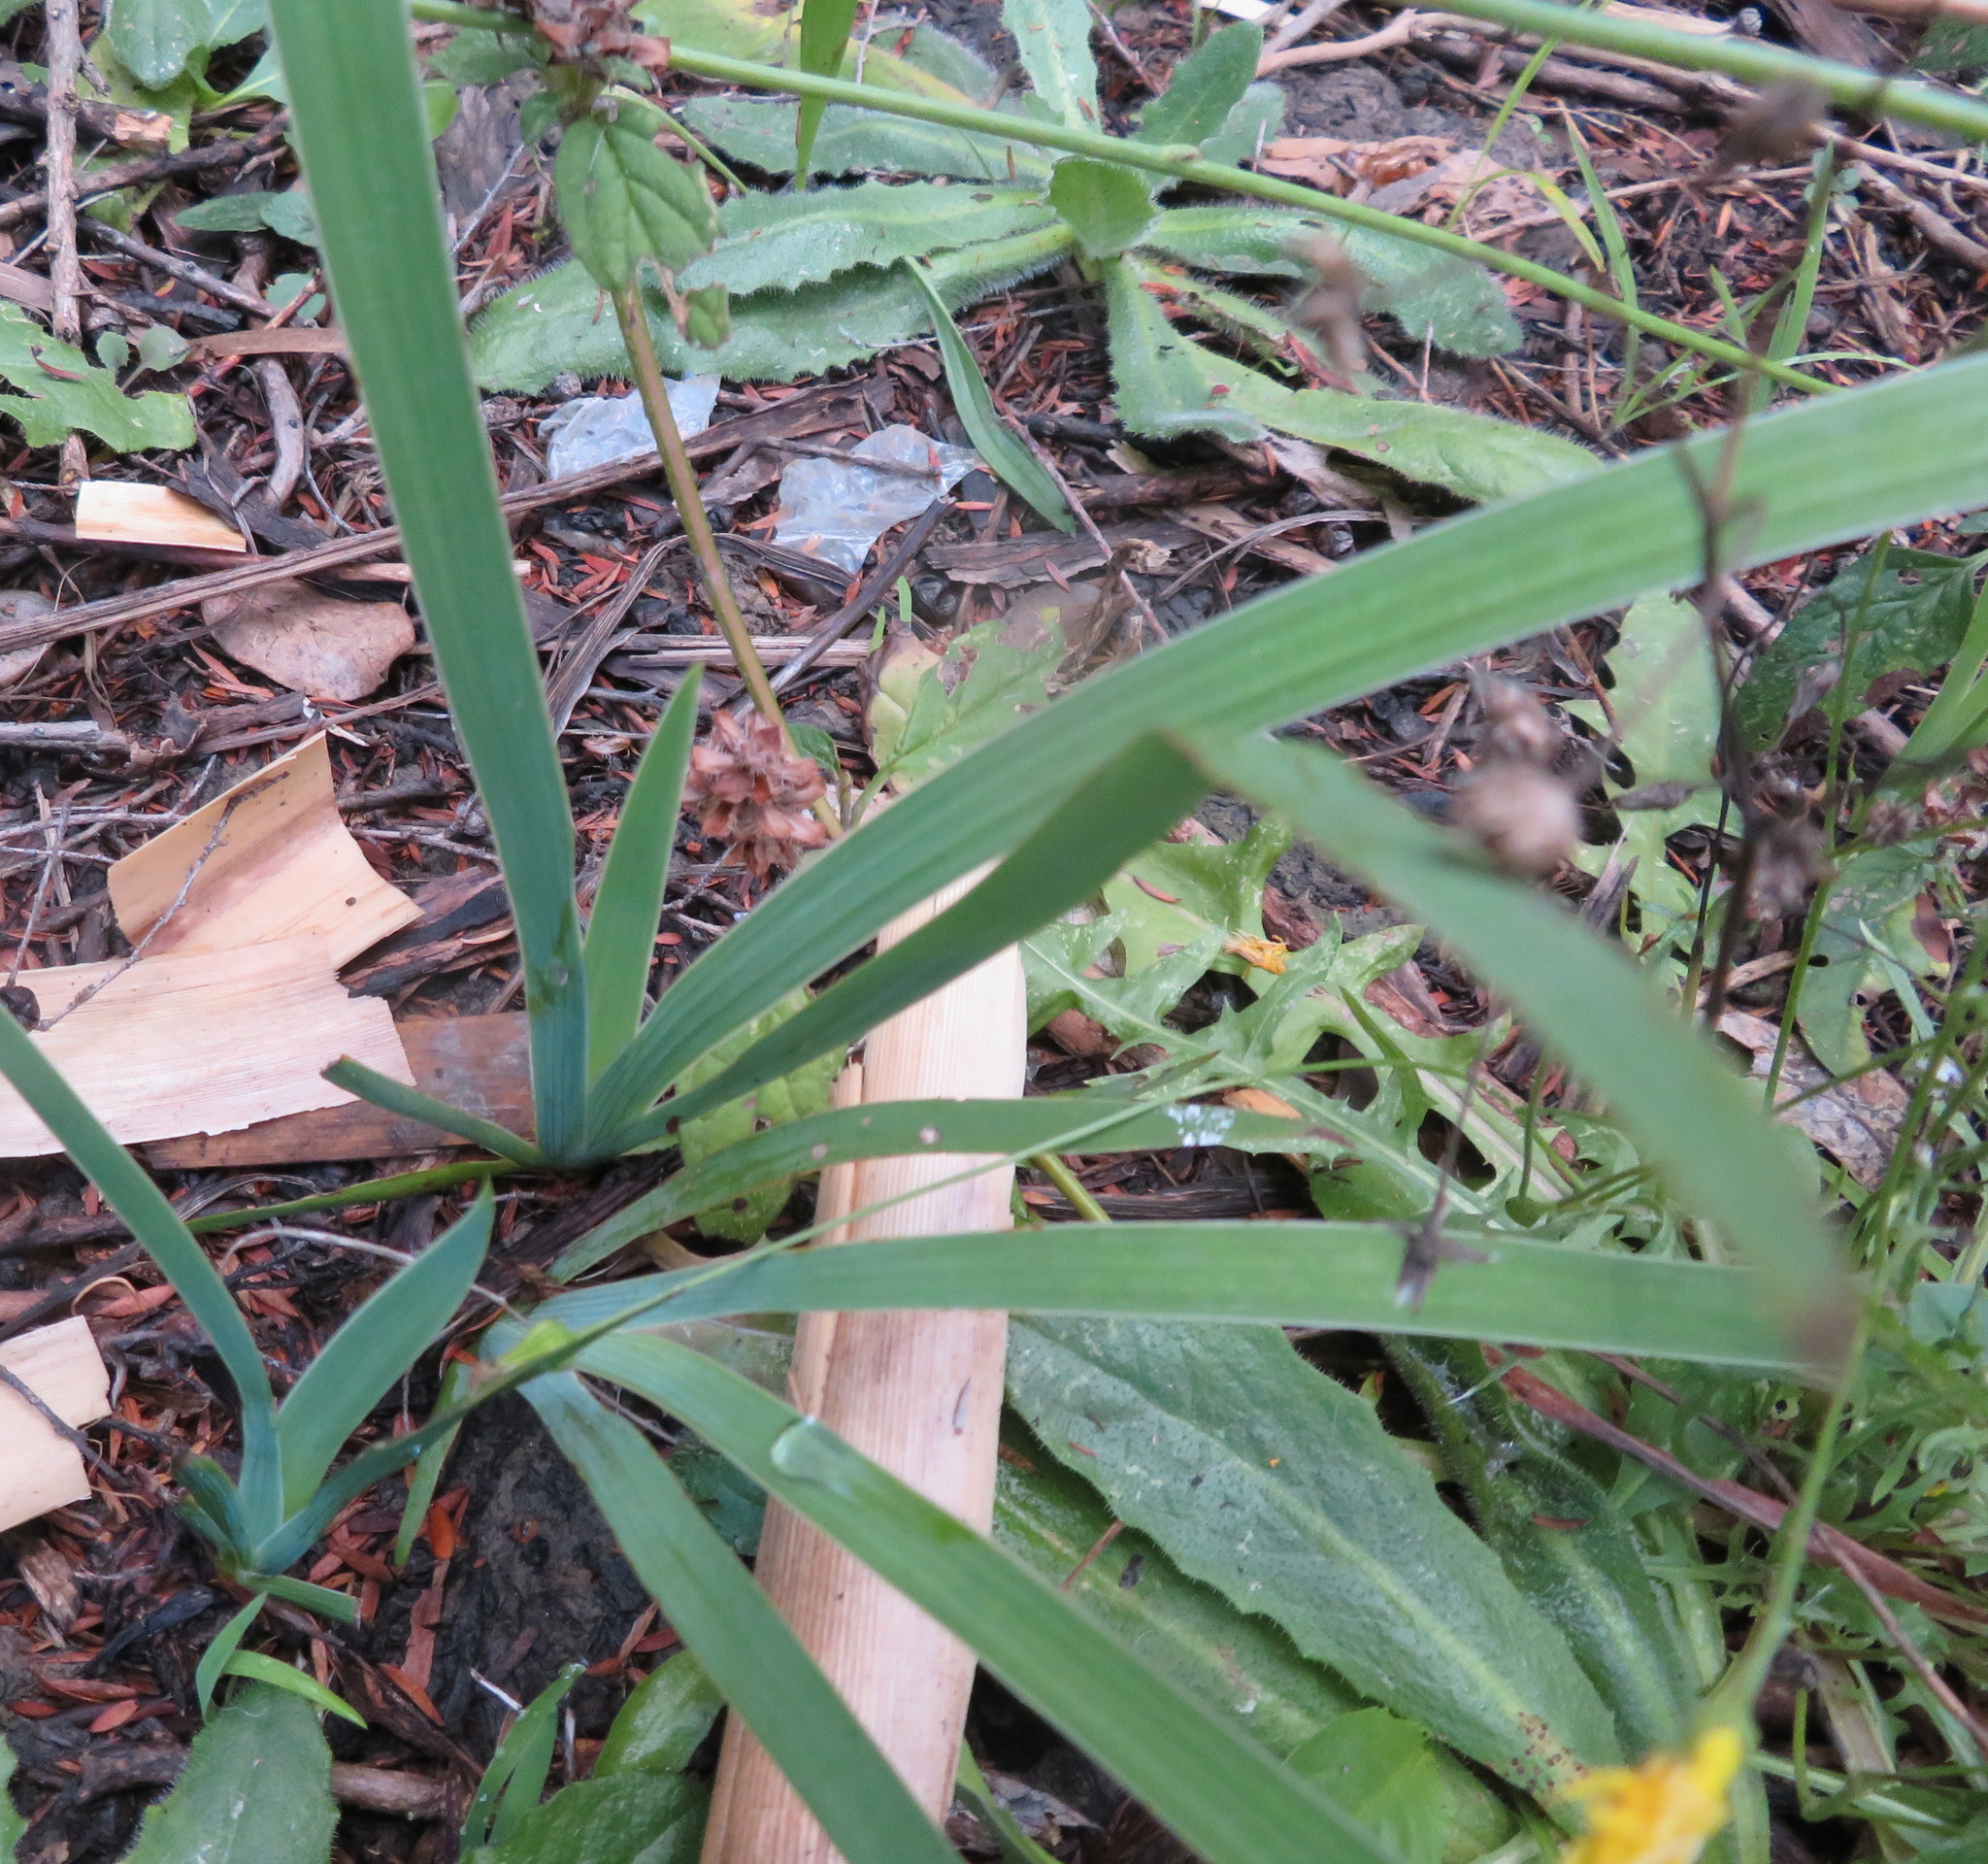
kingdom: Plantae
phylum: Tracheophyta
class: Liliopsida
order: Asparagales
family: Iridaceae
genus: Aristea
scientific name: Aristea ecklonii
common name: Blue corn-lily
